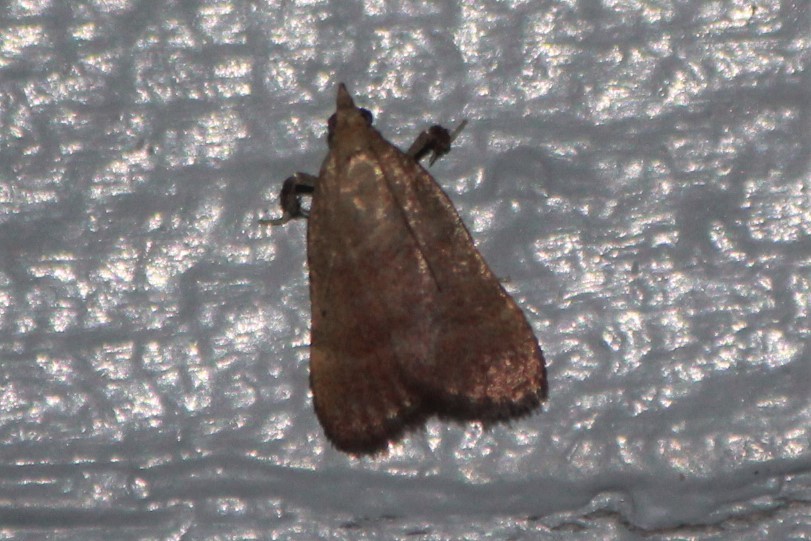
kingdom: Animalia
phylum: Arthropoda
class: Insecta
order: Lepidoptera
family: Pyralidae
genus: Condylolomia
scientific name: Condylolomia participialis
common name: Drab condylolomia moth
